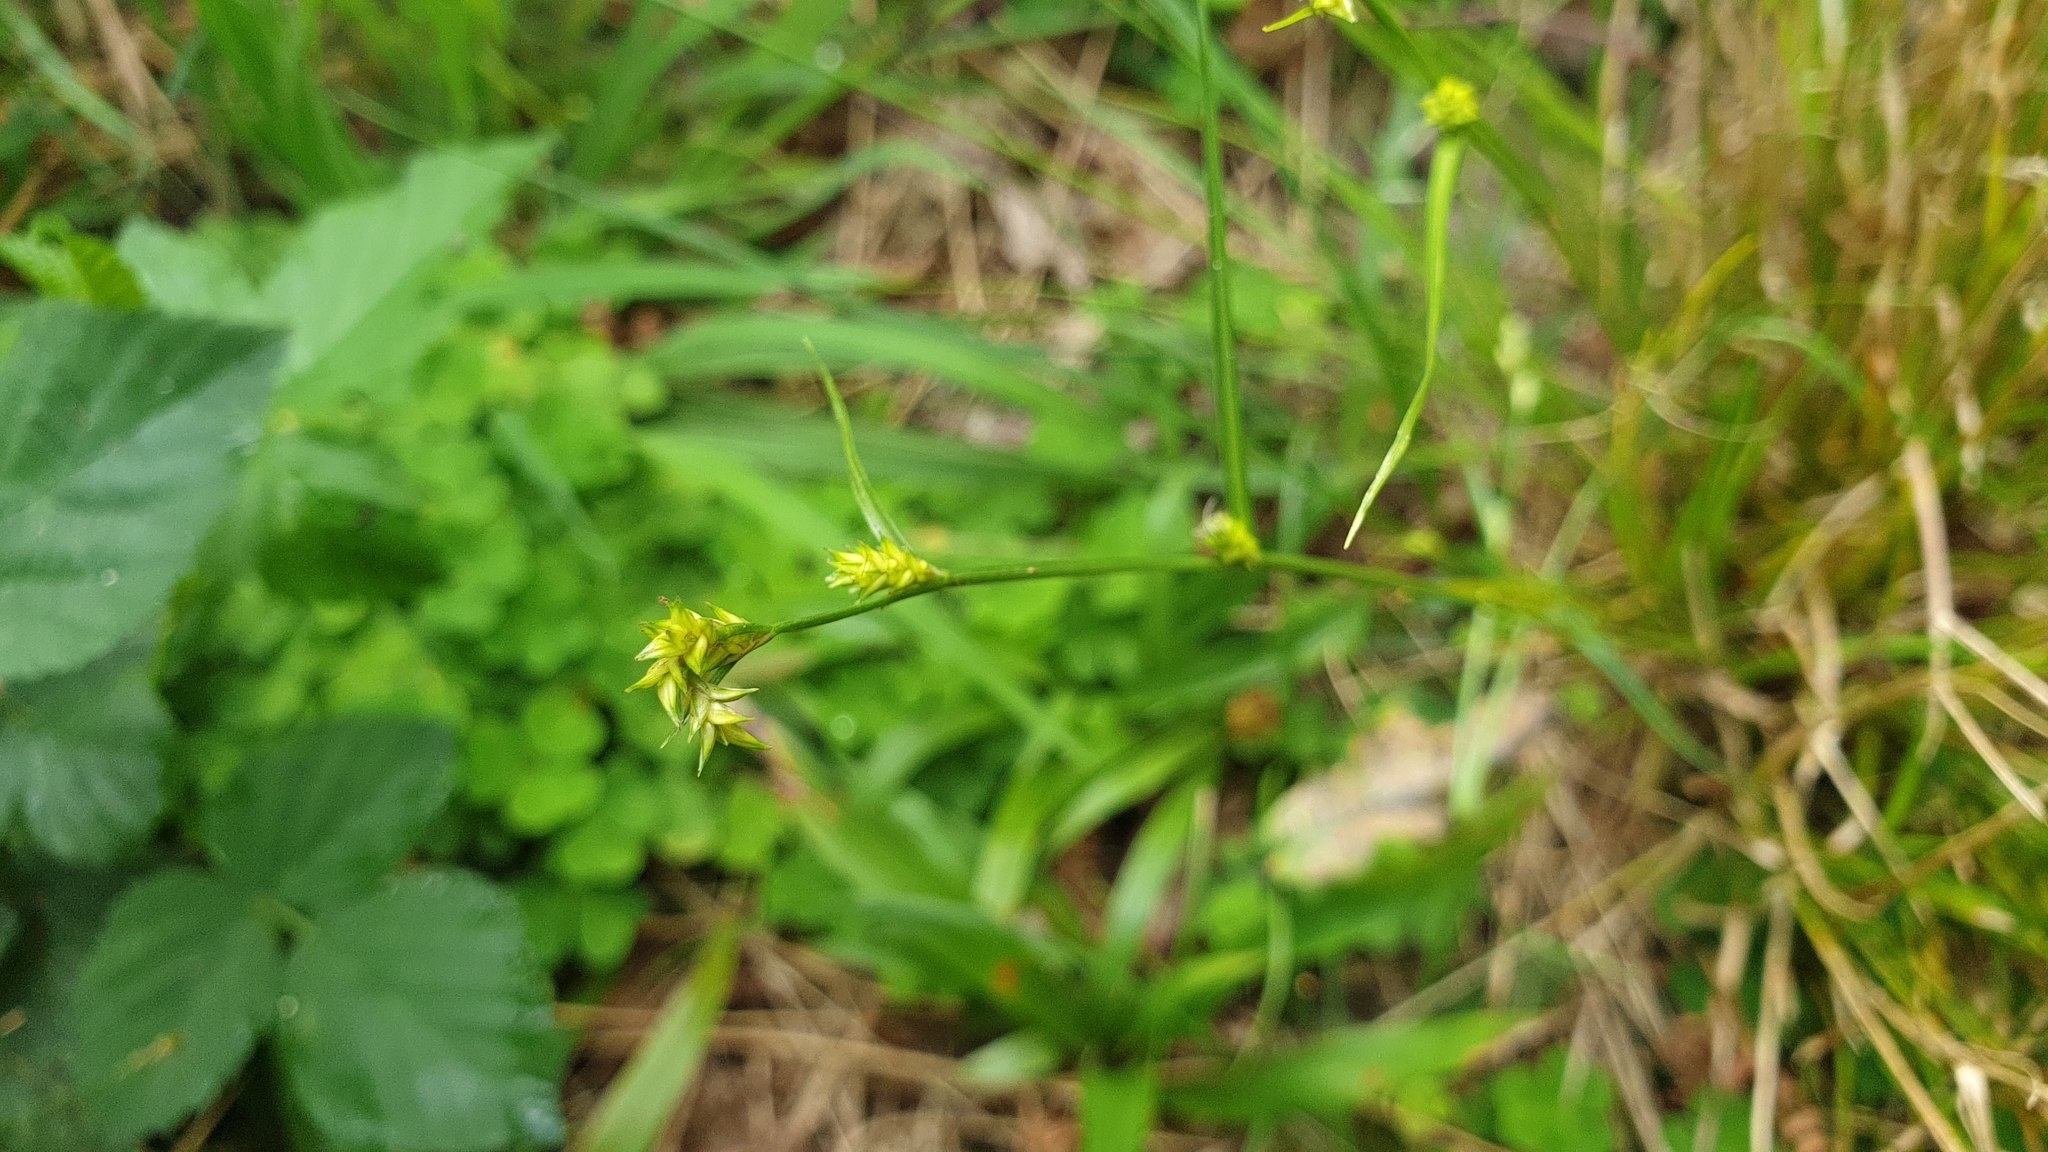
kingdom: Plantae
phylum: Tracheophyta
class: Liliopsida
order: Poales
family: Cyperaceae
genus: Carex
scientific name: Carex remota
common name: Remote sedge
